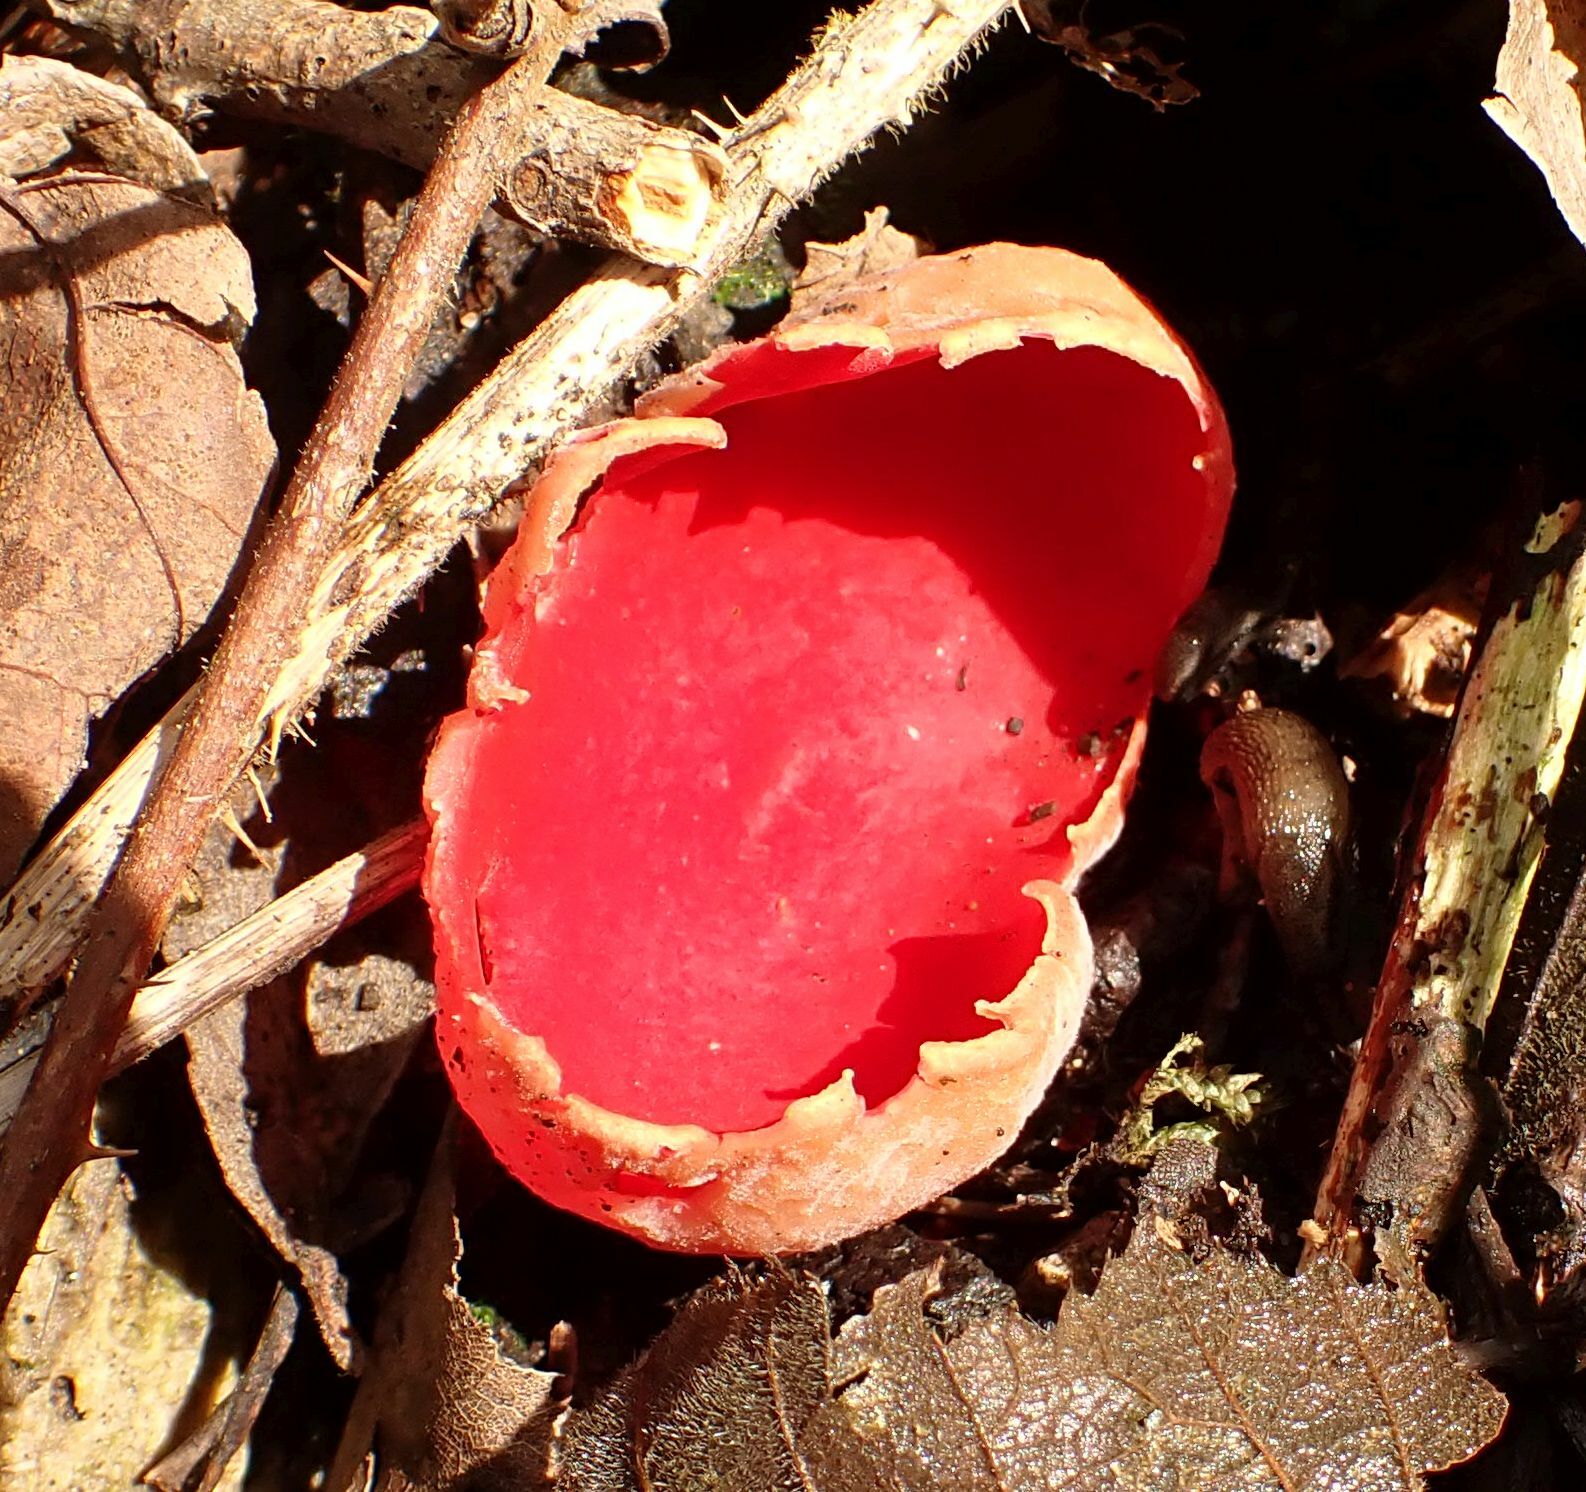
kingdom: Fungi
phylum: Ascomycota
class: Pezizomycetes
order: Pezizales
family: Sarcoscyphaceae
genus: Sarcoscypha
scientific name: Sarcoscypha
